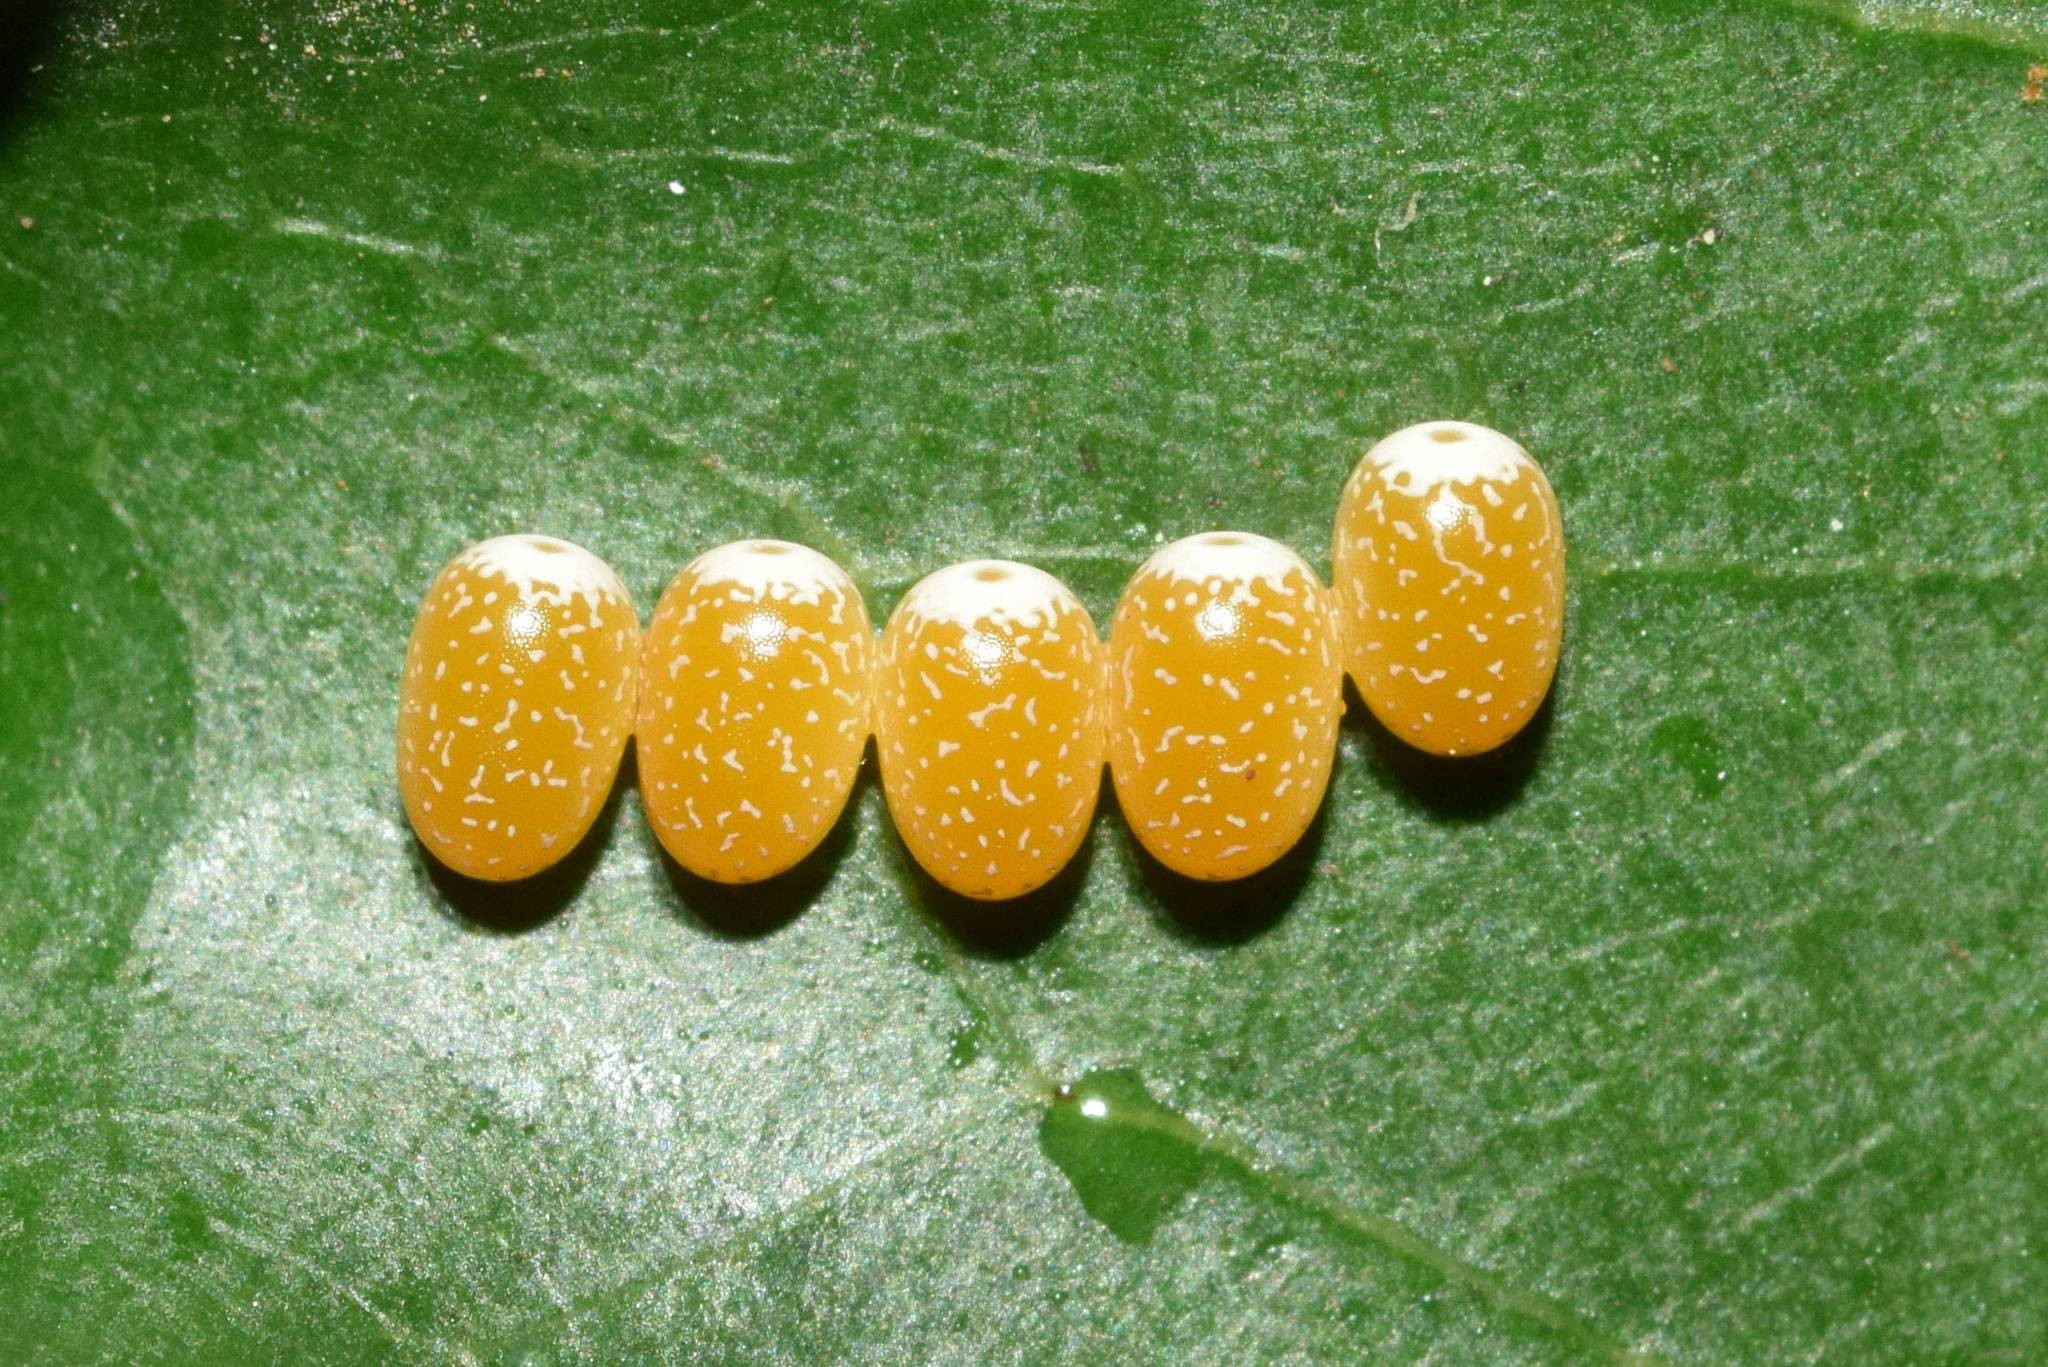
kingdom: Animalia
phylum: Arthropoda
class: Insecta
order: Lepidoptera
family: Saturniidae
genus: Pseudobunaea
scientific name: Pseudobunaea tyrrhena
